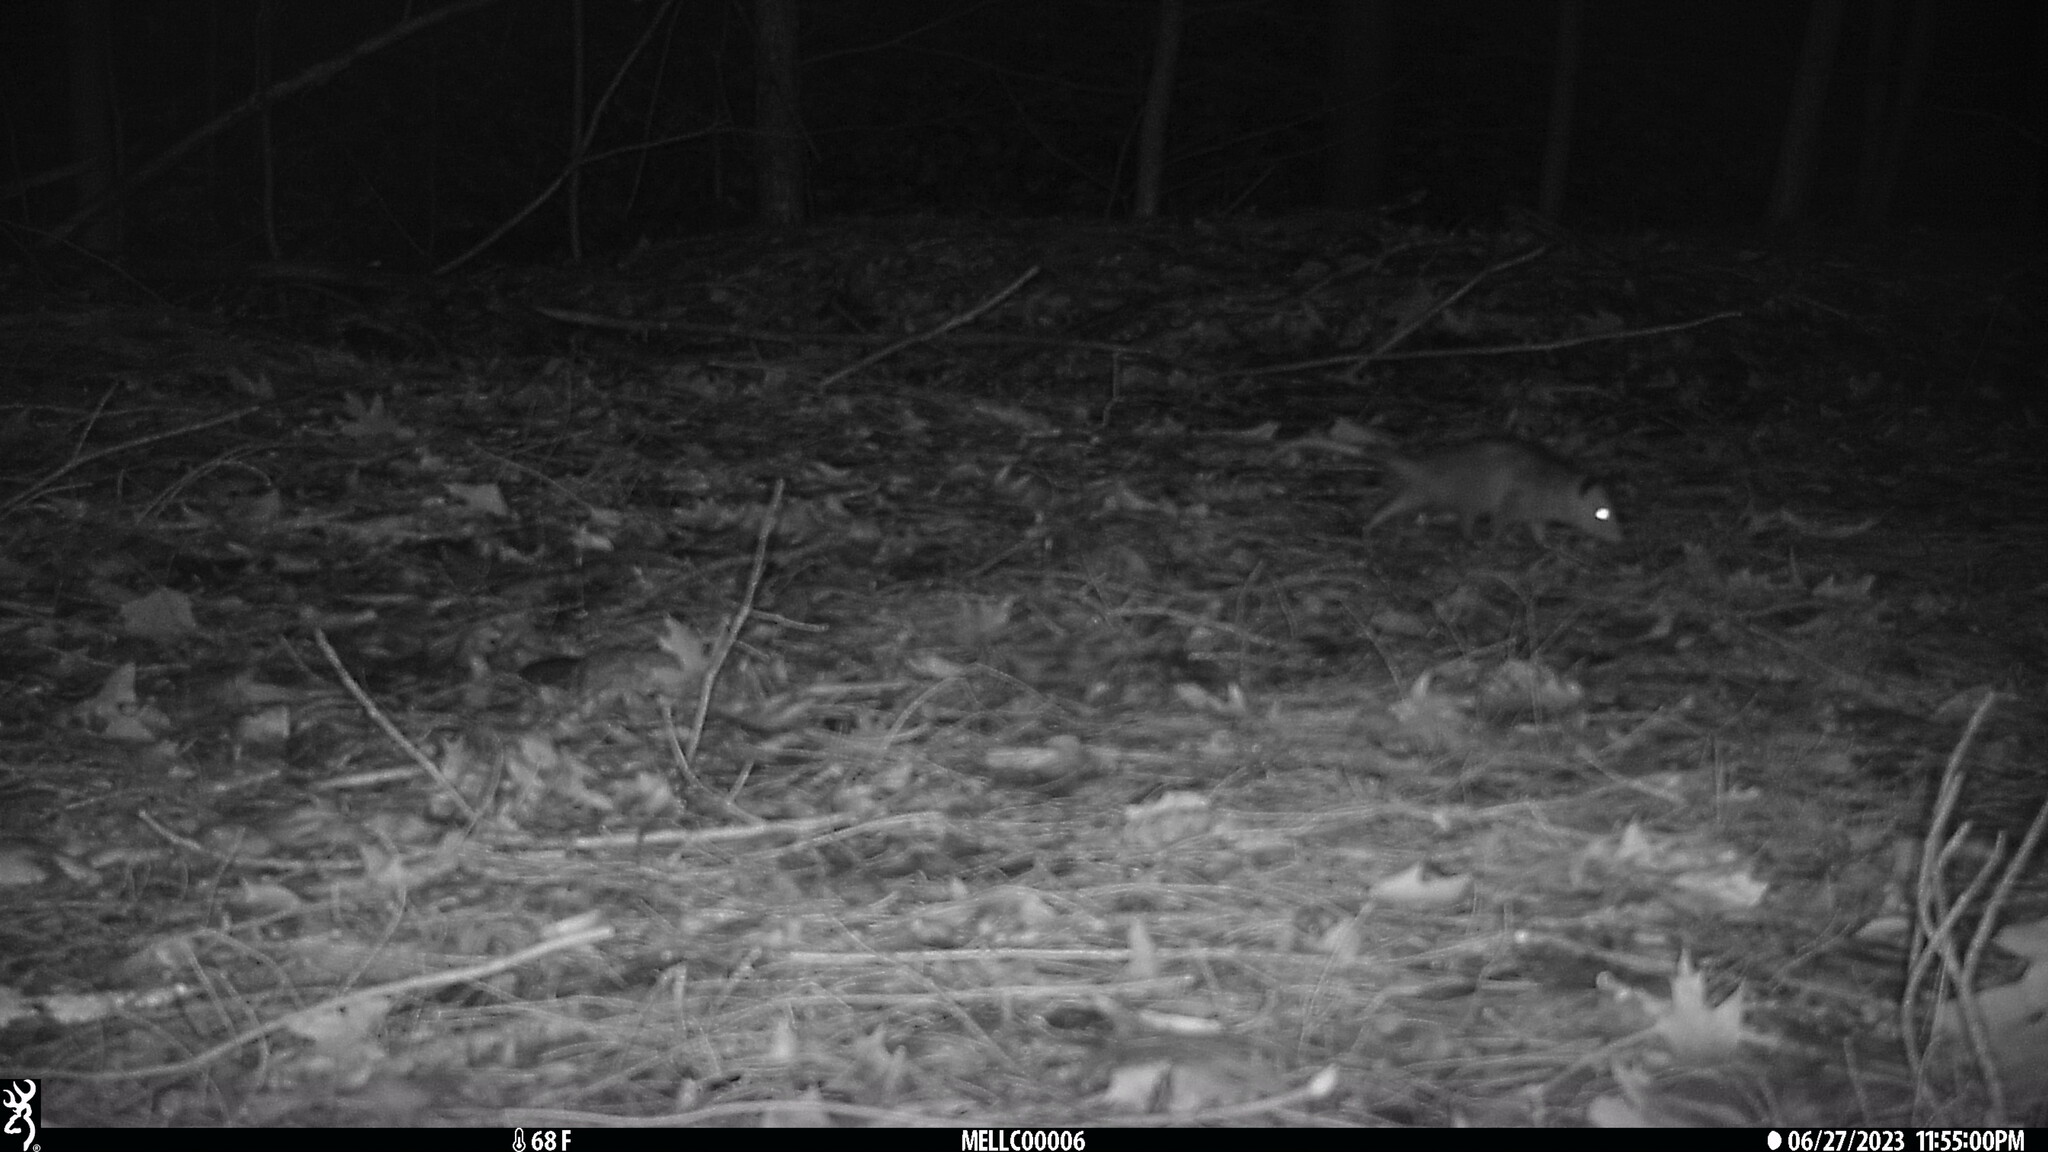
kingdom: Animalia
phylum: Chordata
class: Mammalia
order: Didelphimorphia
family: Didelphidae
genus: Didelphis
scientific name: Didelphis virginiana
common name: Virginia opossum
